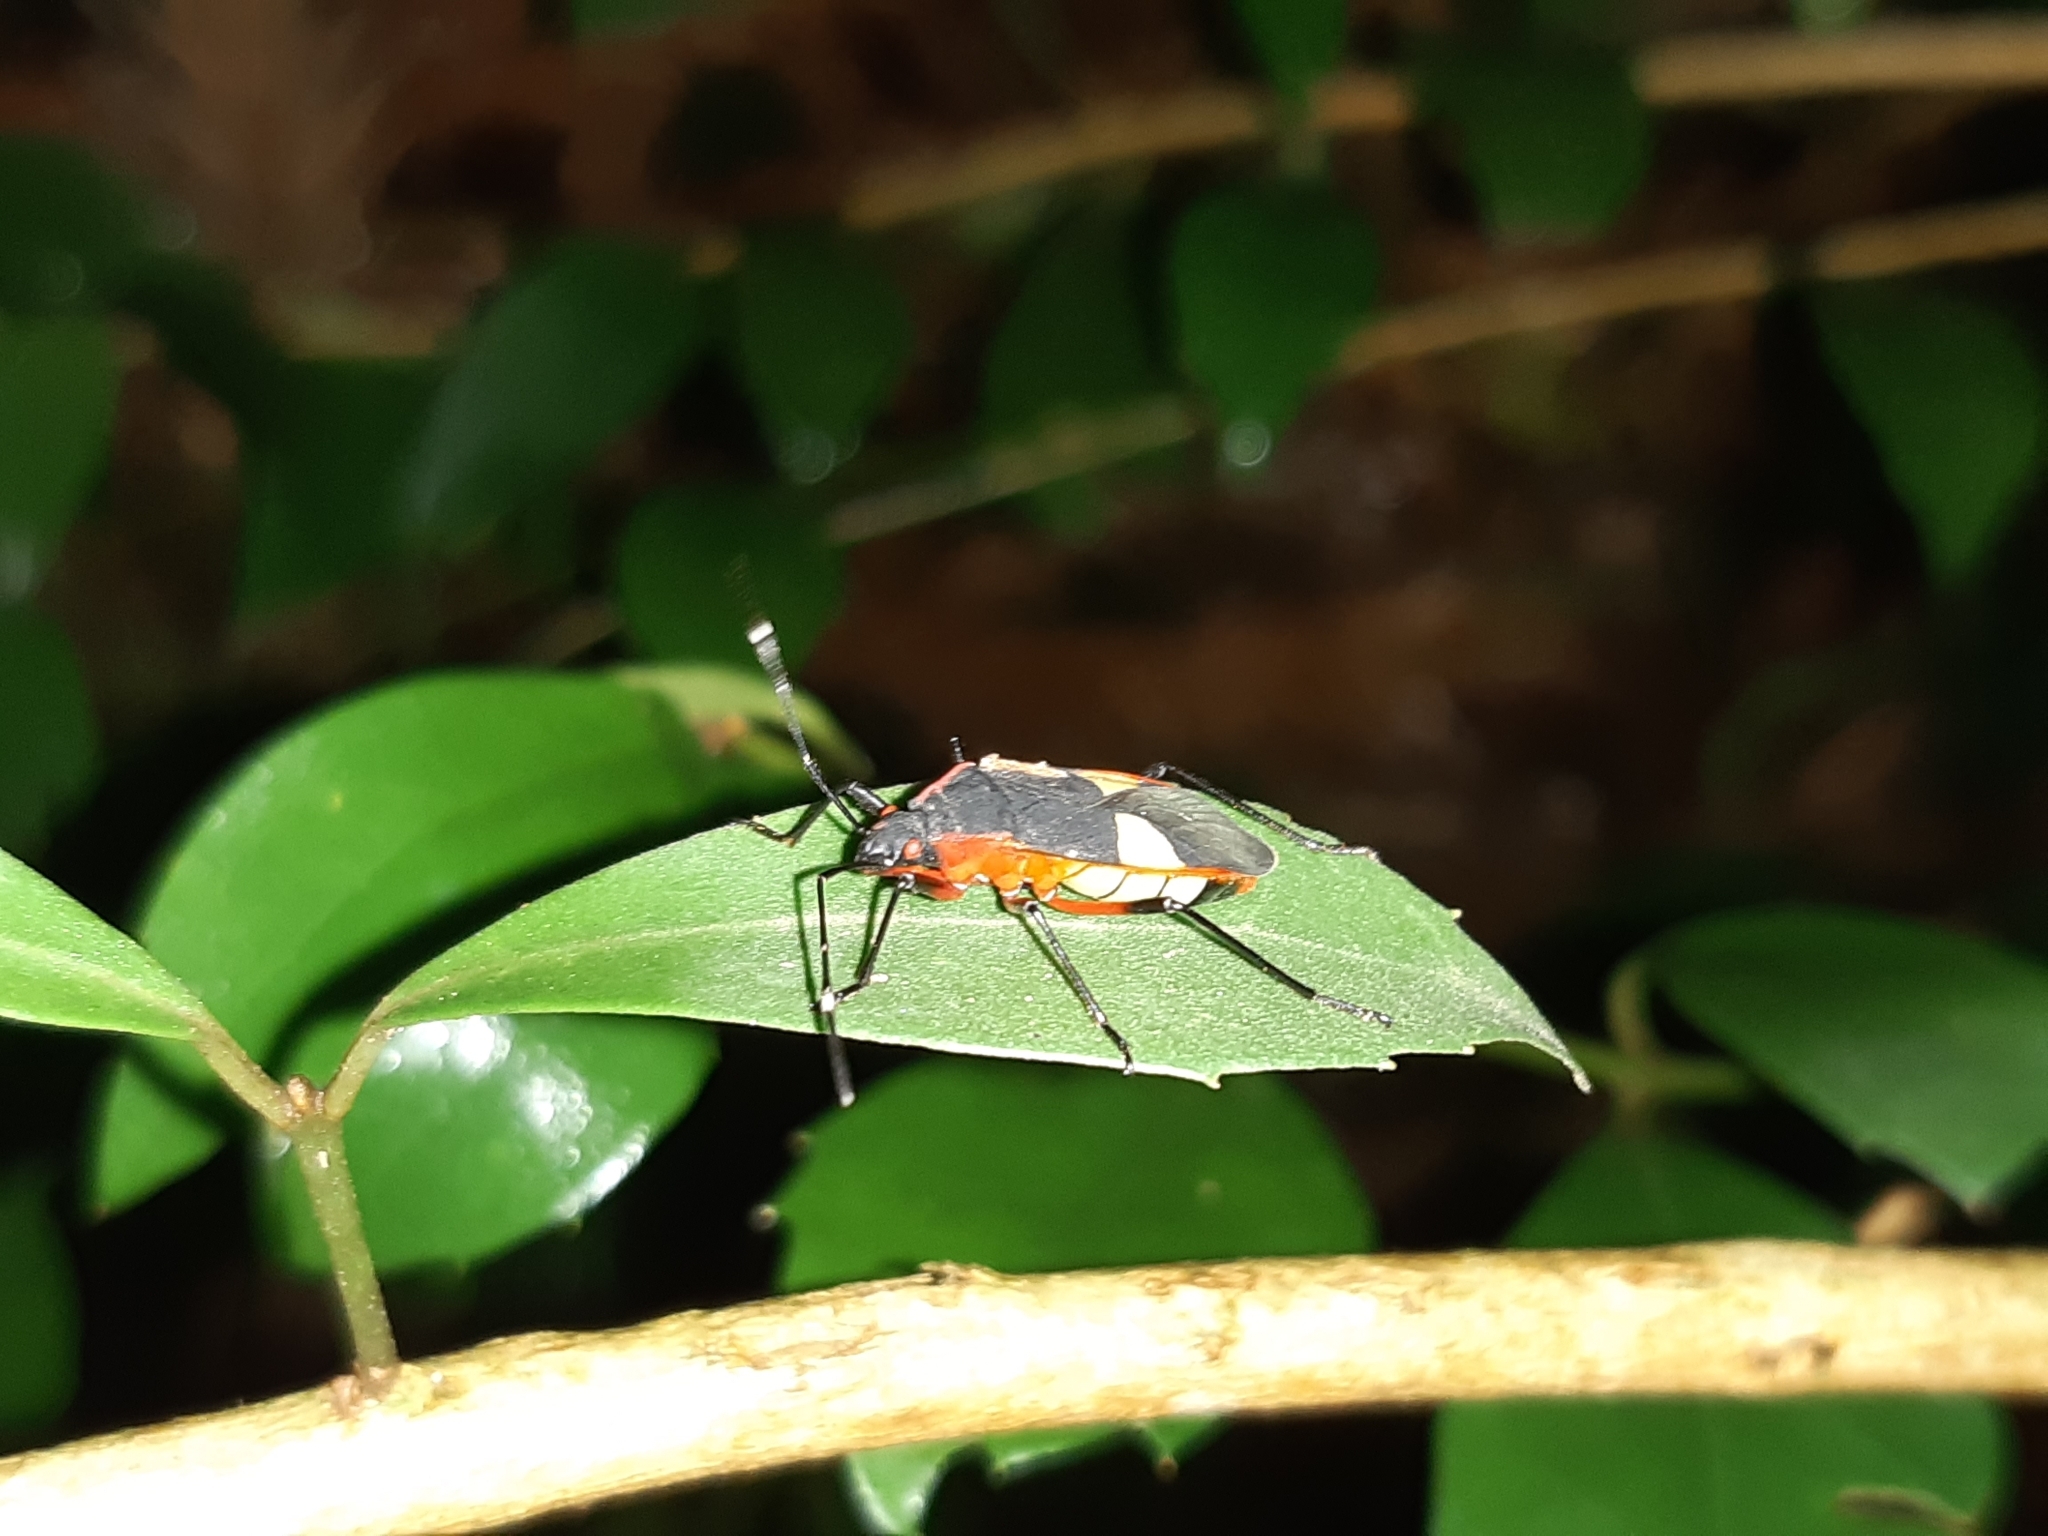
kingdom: Animalia
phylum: Arthropoda
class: Insecta
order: Hemiptera
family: Pyrrhocoridae
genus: Dysdercus
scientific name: Dysdercus albofasciatus
